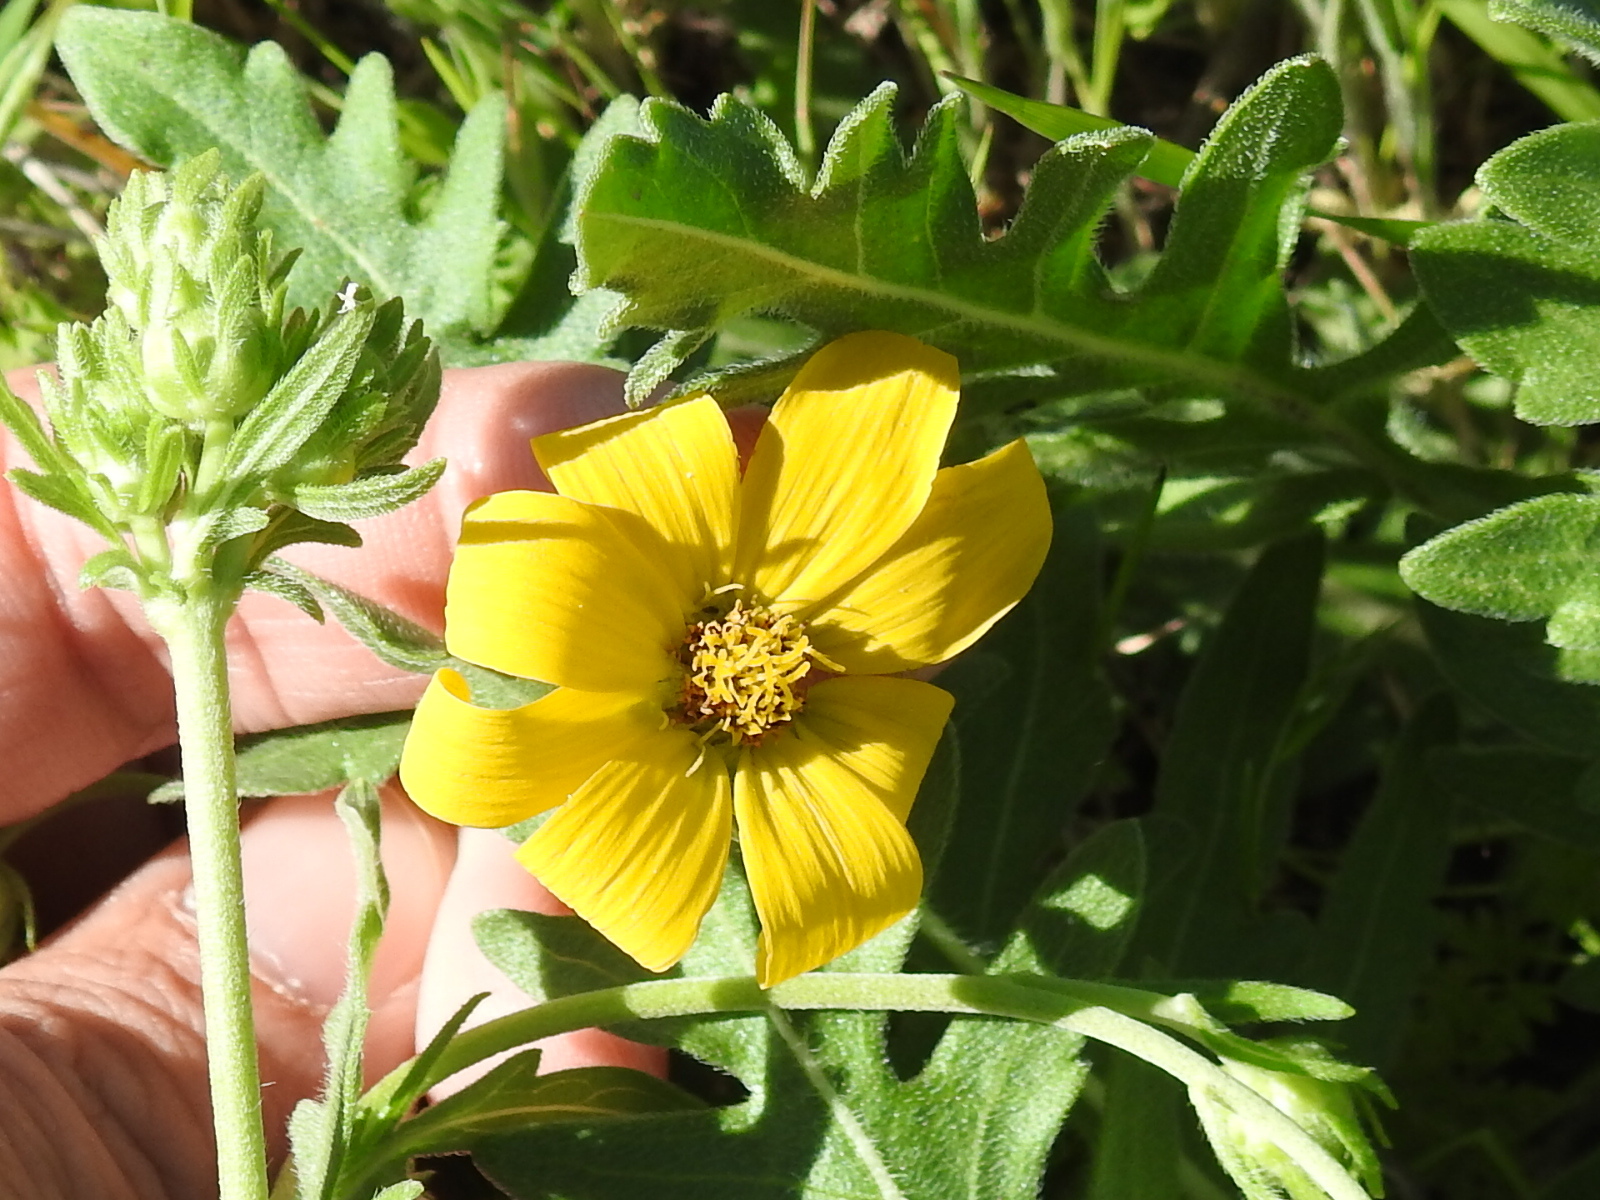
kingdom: Plantae
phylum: Tracheophyta
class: Magnoliopsida
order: Asterales
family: Asteraceae
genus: Engelmannia
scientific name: Engelmannia peristenia
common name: Engelmann's daisy
